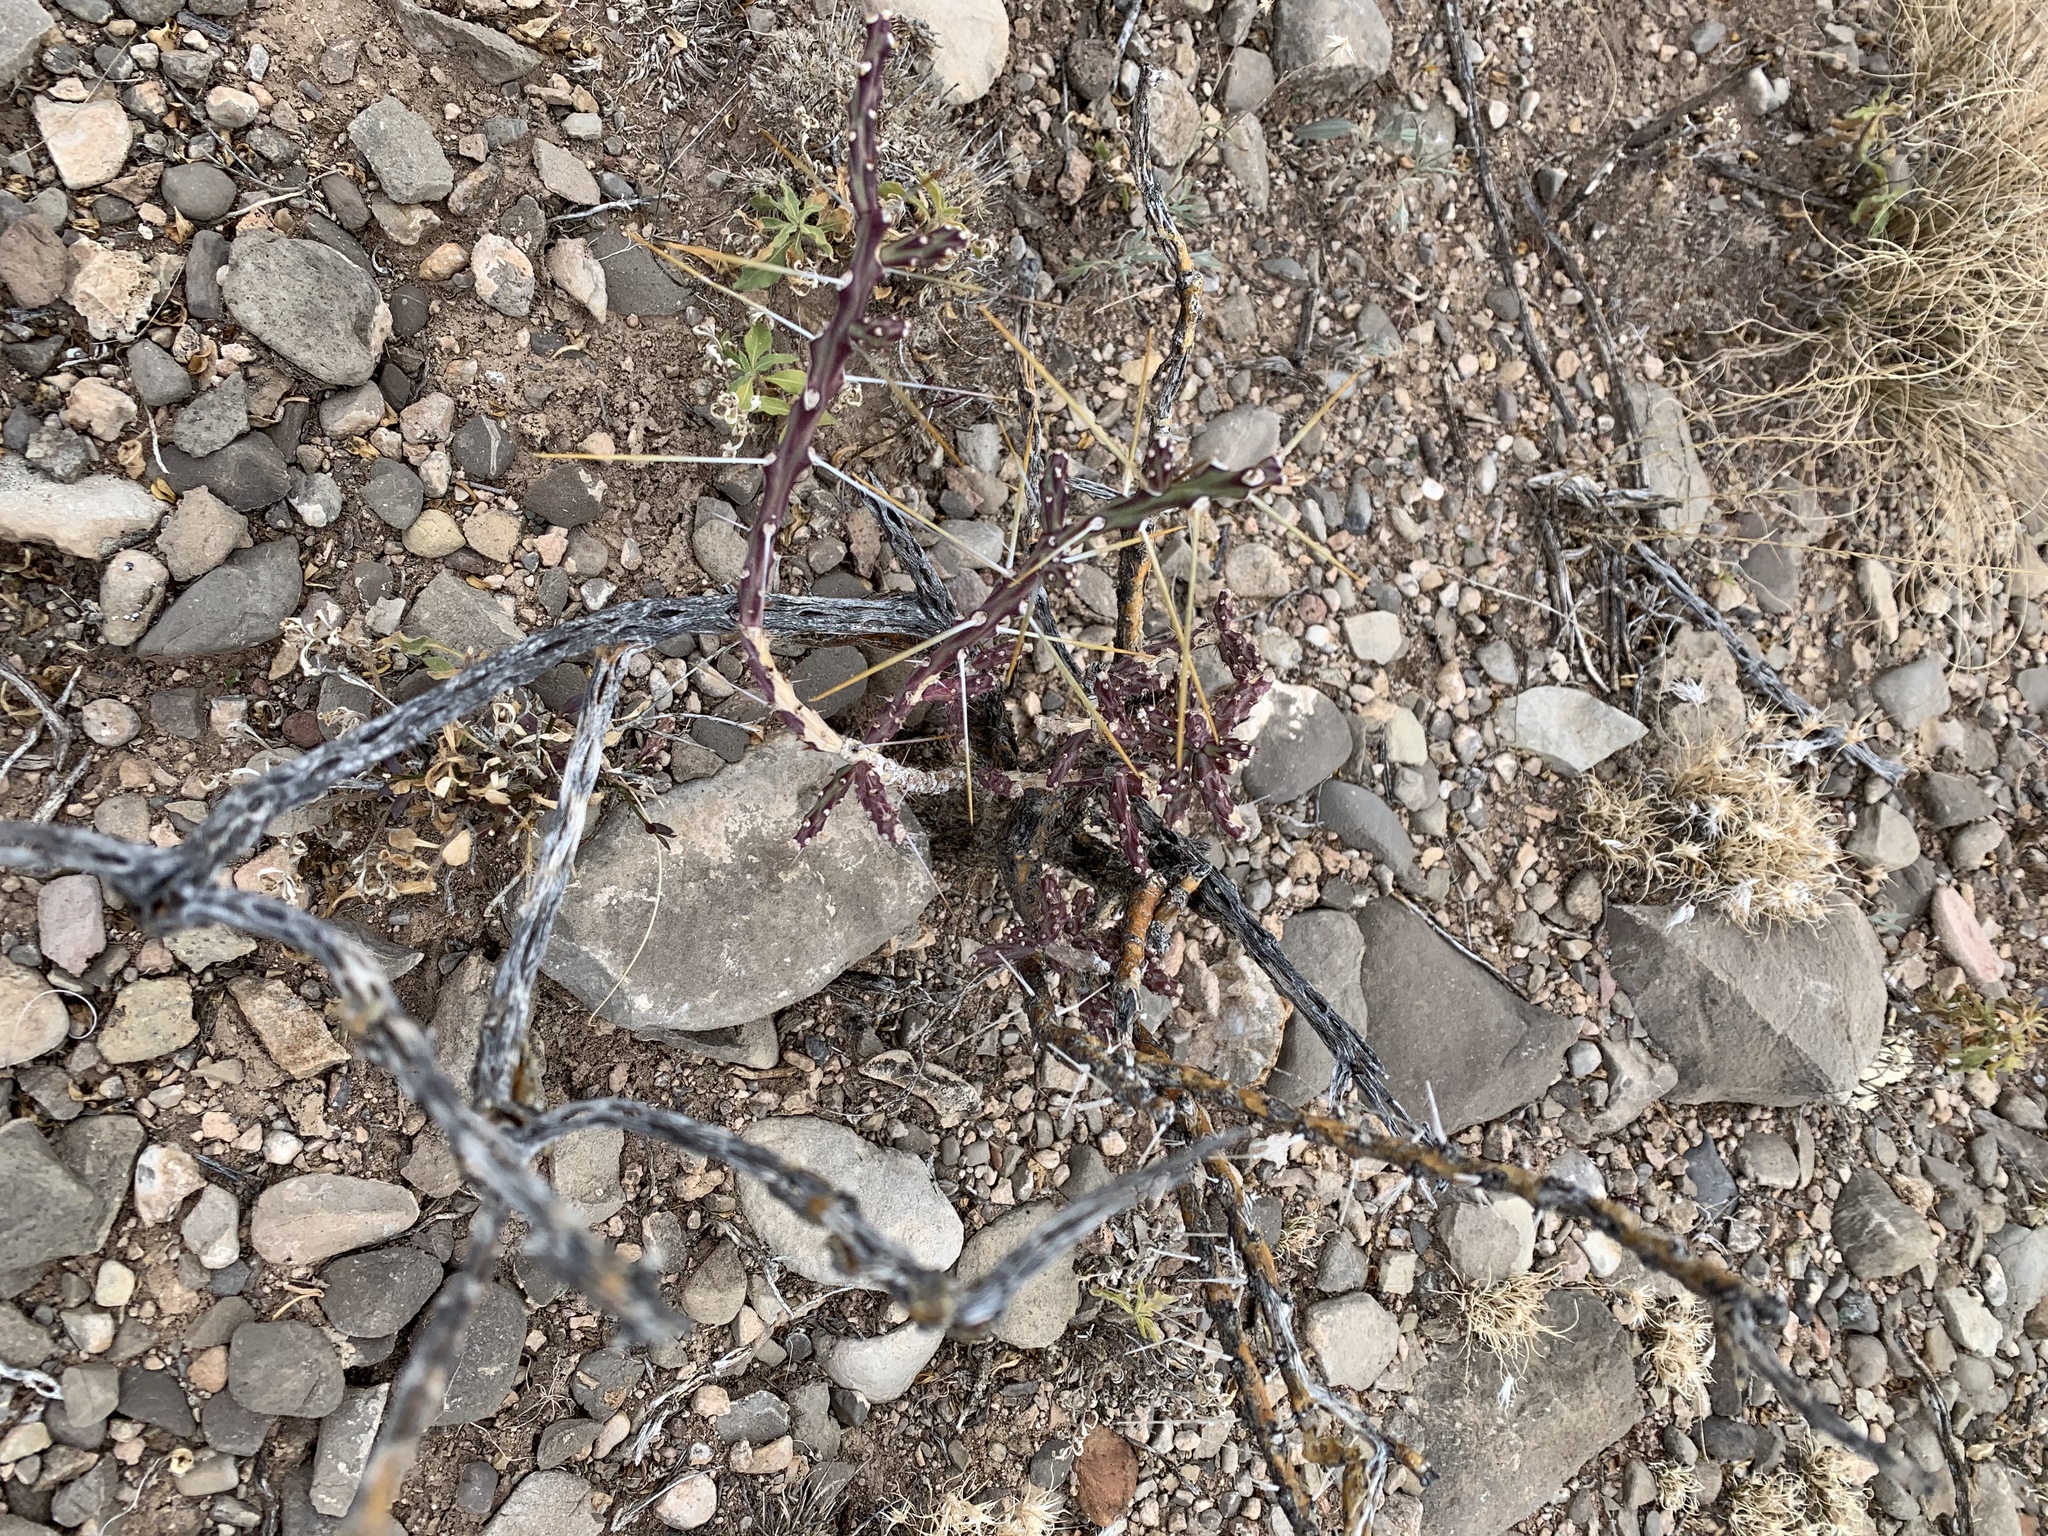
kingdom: Plantae
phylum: Tracheophyta
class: Magnoliopsida
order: Caryophyllales
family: Cactaceae
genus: Cylindropuntia
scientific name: Cylindropuntia leptocaulis
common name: Christmas cactus
